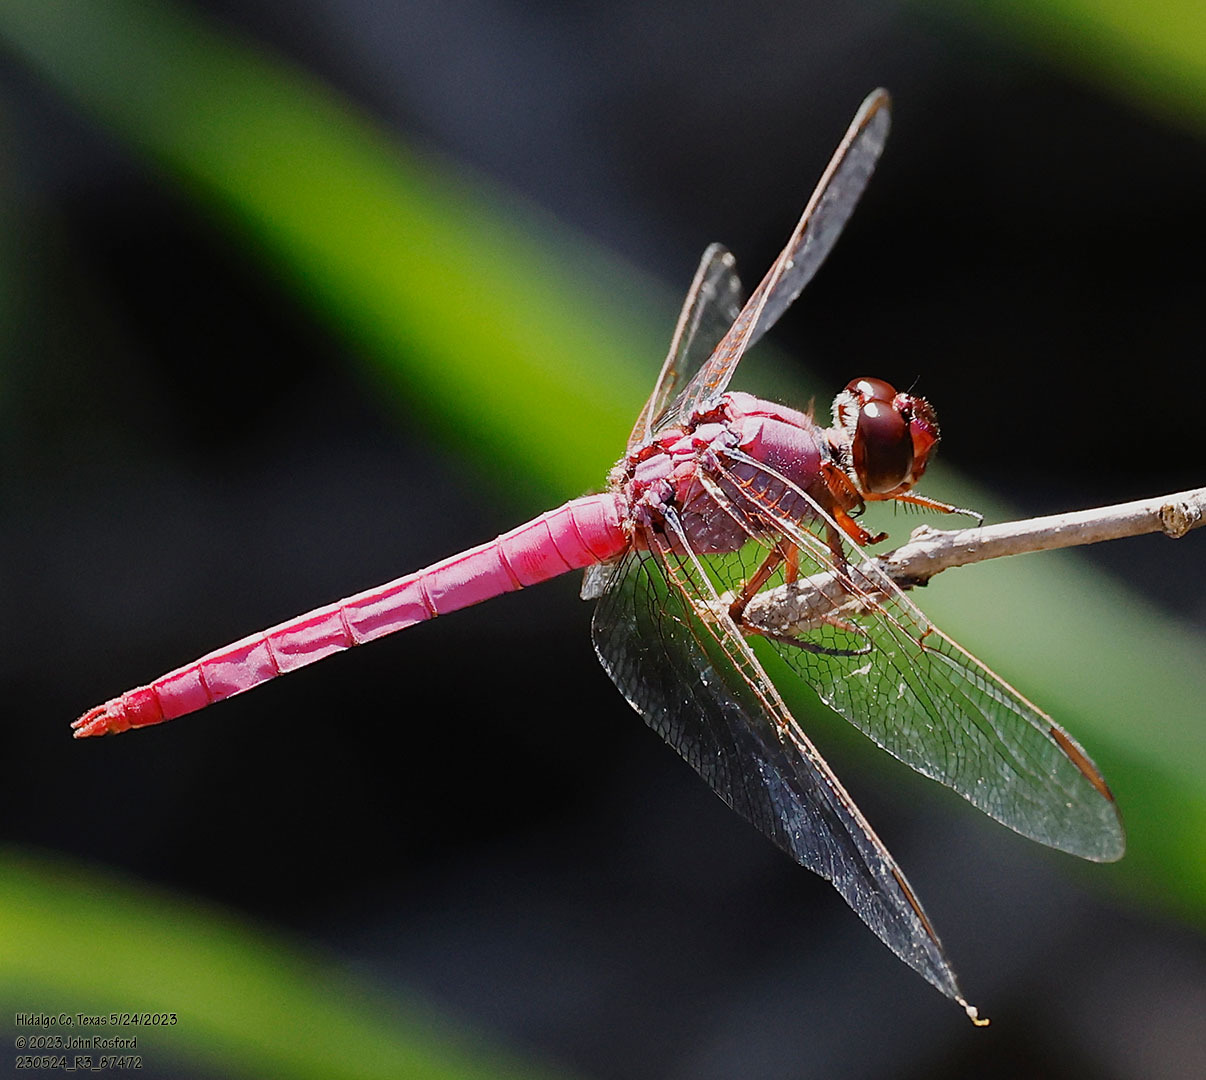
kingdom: Animalia
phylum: Arthropoda
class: Insecta
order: Odonata
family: Libellulidae
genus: Orthemis
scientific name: Orthemis discolor
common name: Carmine skimmer
